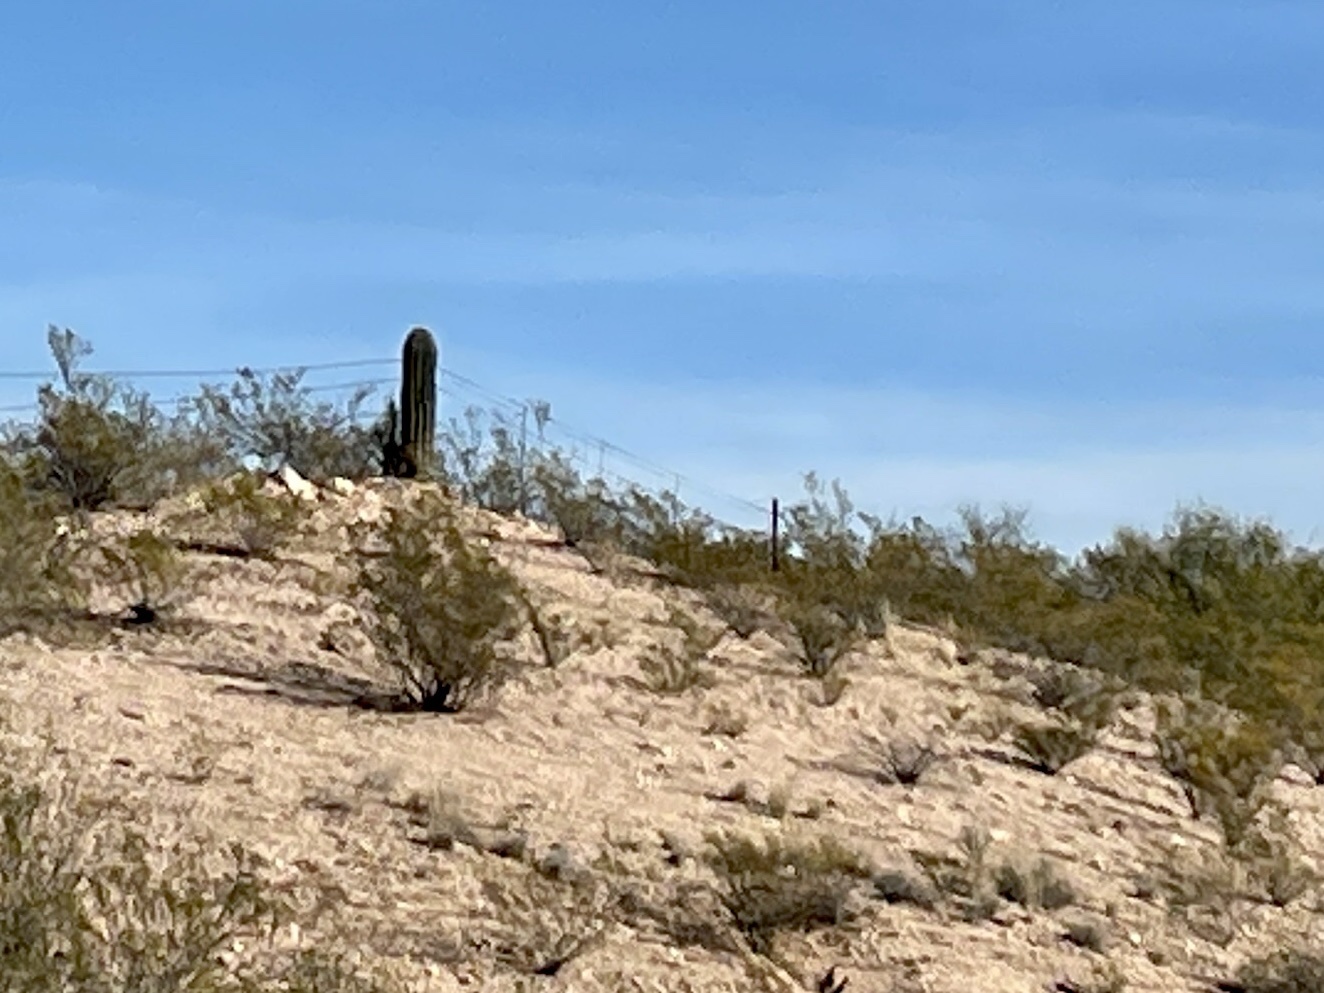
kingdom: Plantae
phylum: Tracheophyta
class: Magnoliopsida
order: Zygophyllales
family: Zygophyllaceae
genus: Larrea
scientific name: Larrea tridentata
